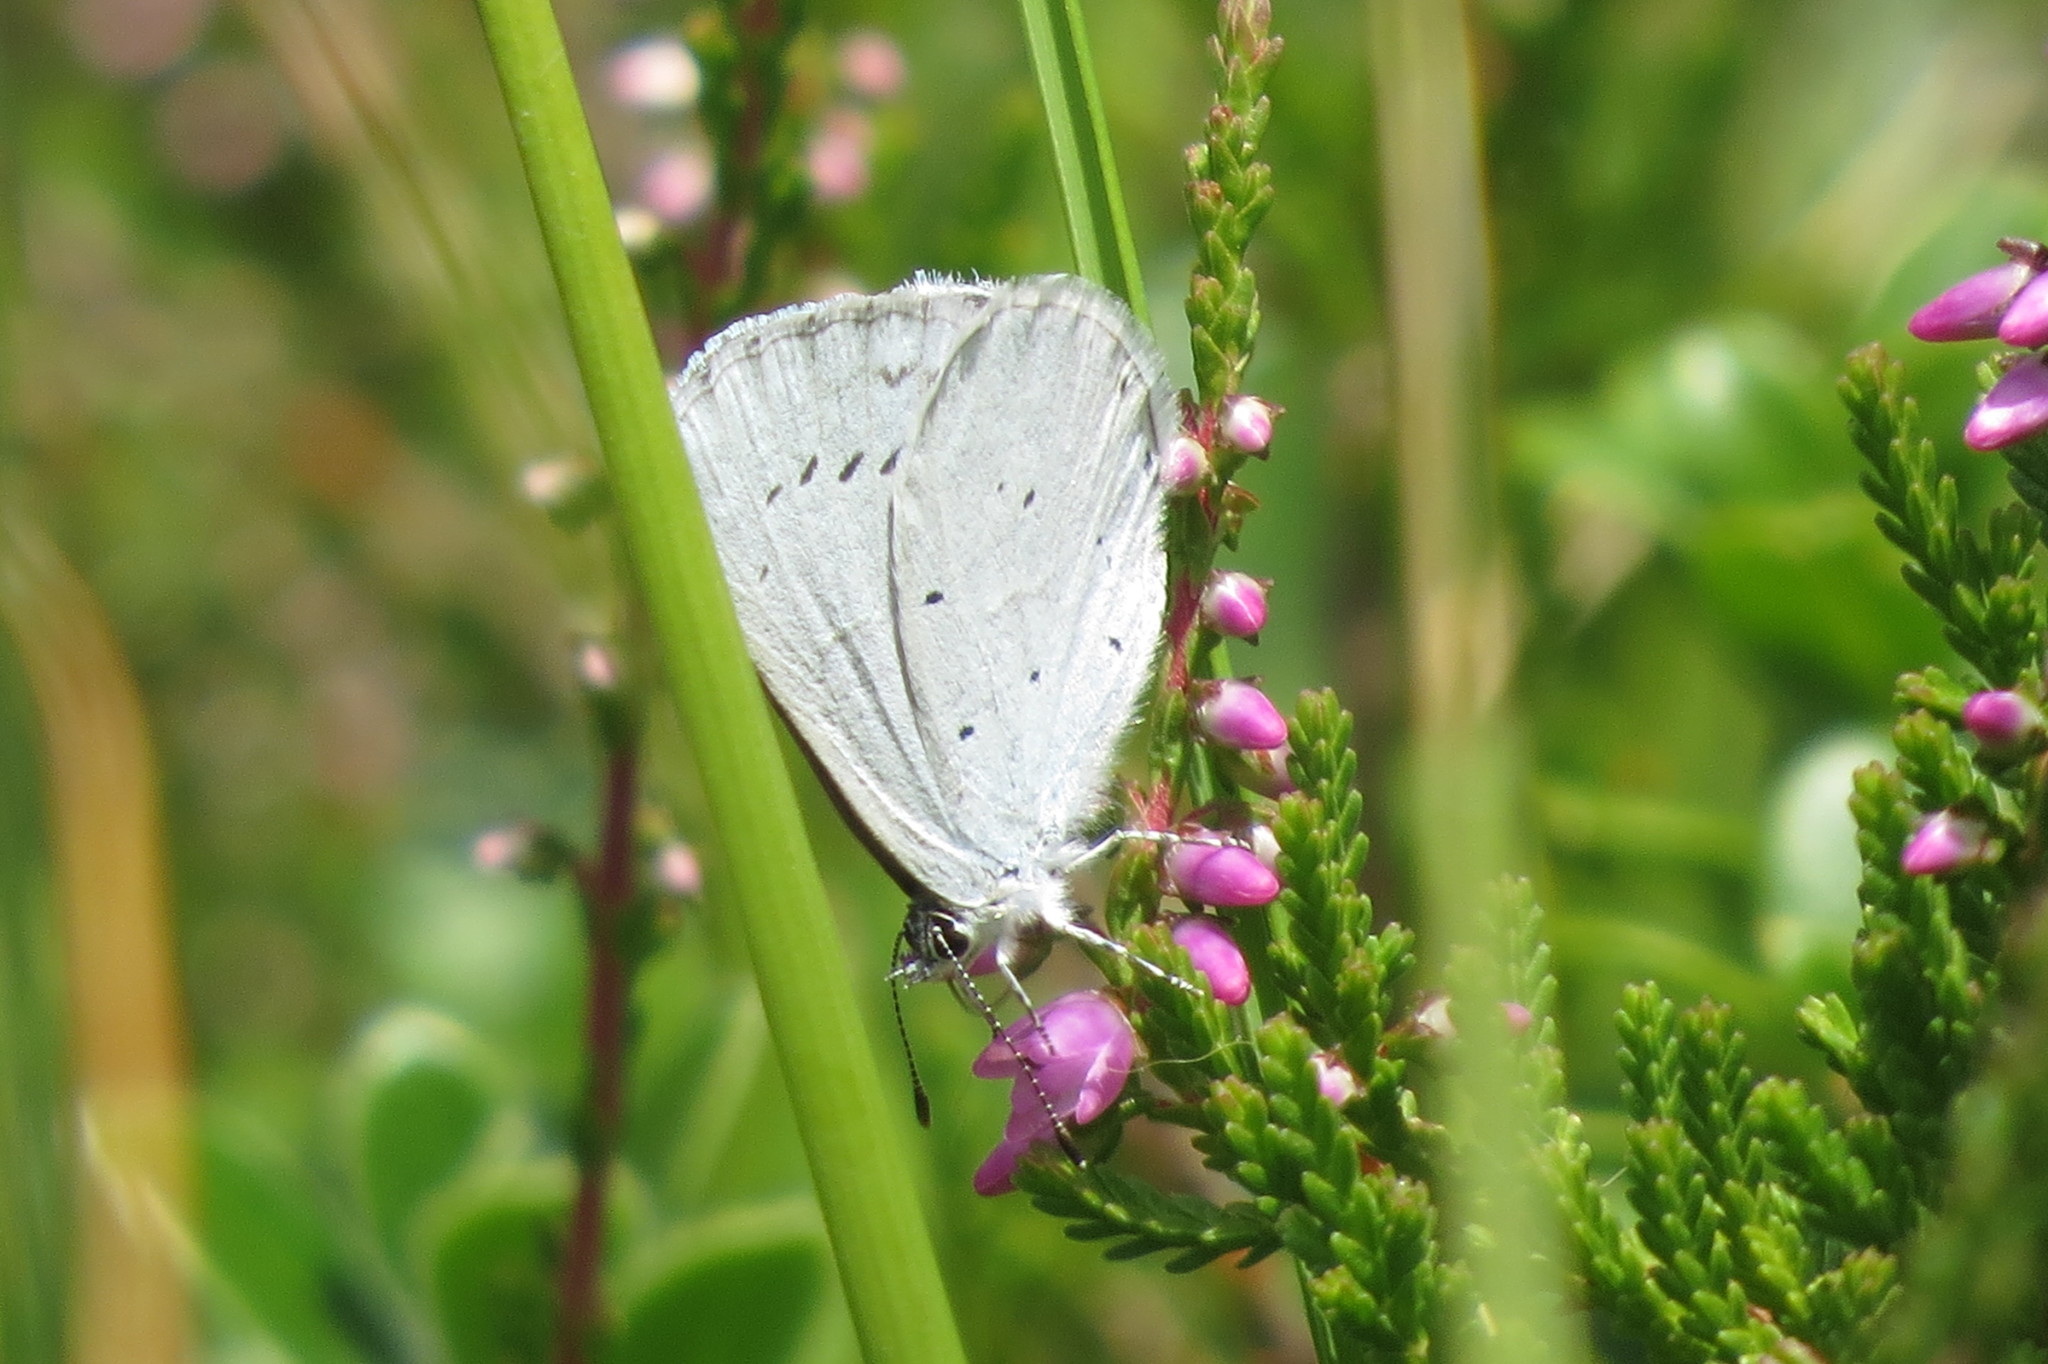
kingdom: Animalia
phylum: Arthropoda
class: Insecta
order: Lepidoptera
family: Lycaenidae
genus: Celastrina
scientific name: Celastrina argiolus
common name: Holly blue
